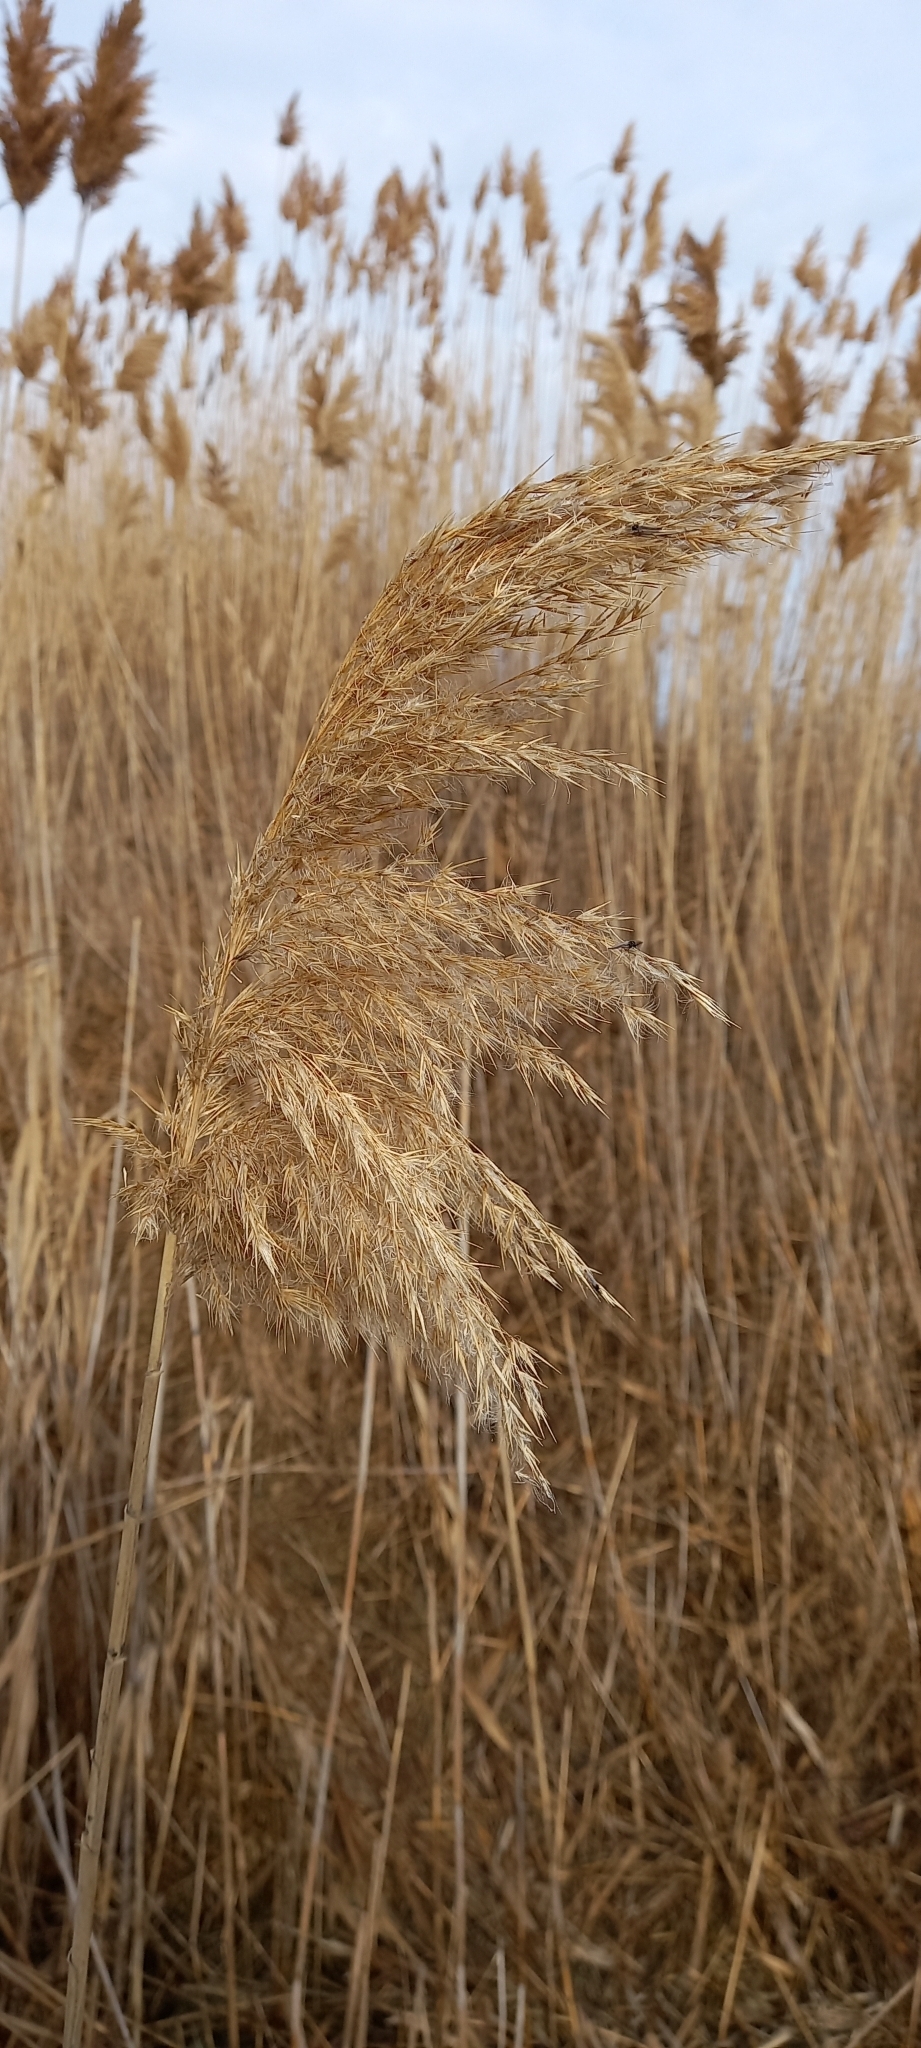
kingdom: Plantae
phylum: Tracheophyta
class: Liliopsida
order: Poales
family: Poaceae
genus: Phragmites
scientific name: Phragmites australis
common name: Common reed
